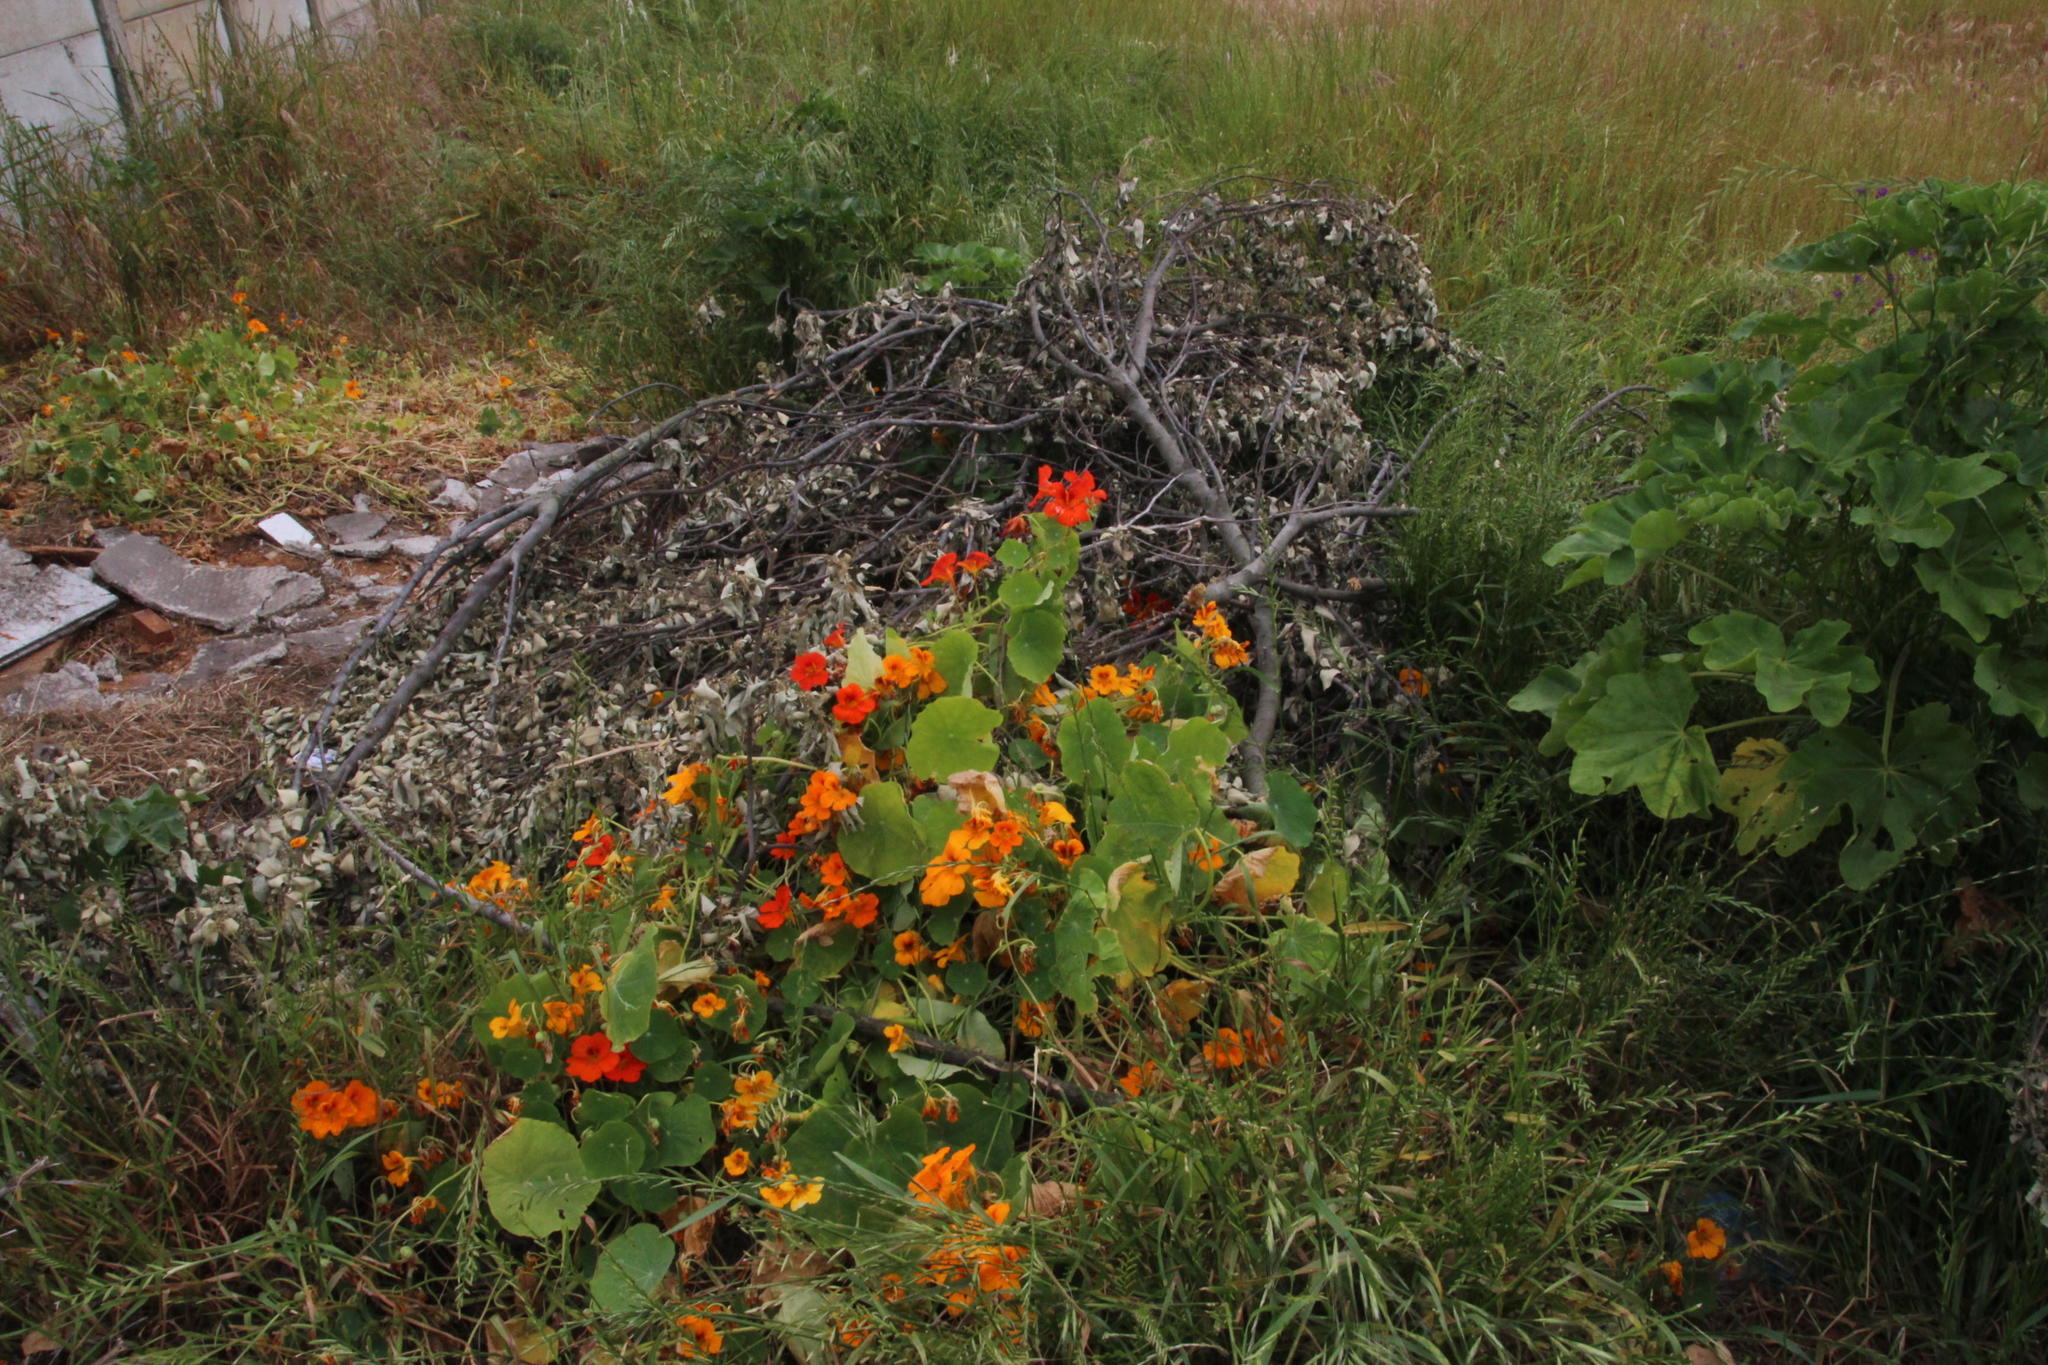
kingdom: Plantae
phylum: Tracheophyta
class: Magnoliopsida
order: Brassicales
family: Tropaeolaceae
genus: Tropaeolum
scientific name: Tropaeolum majus
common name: Nasturtium
